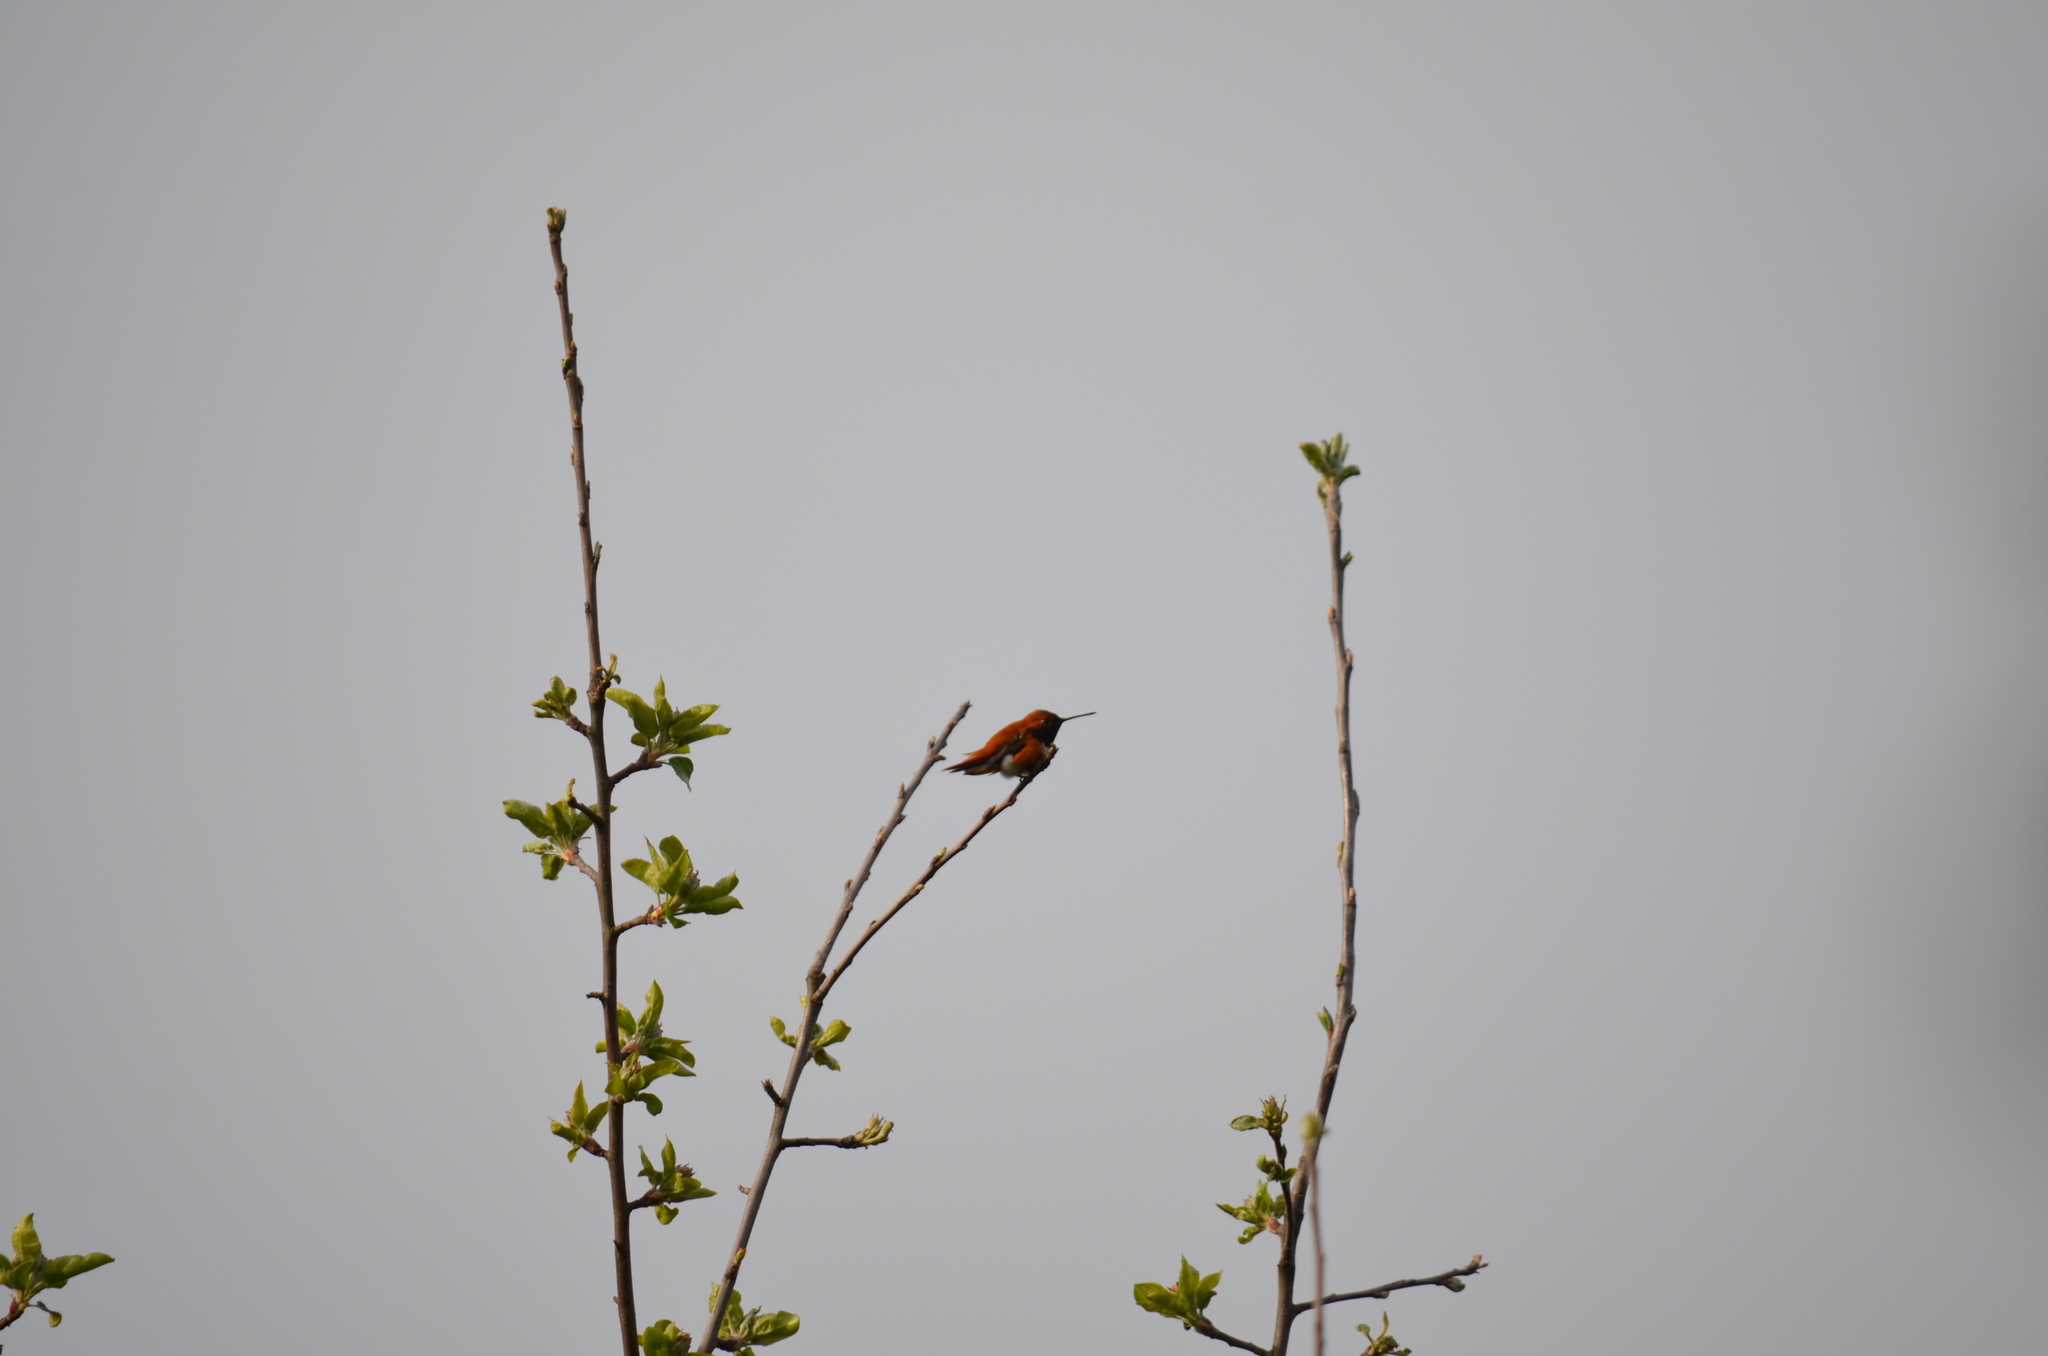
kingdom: Animalia
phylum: Chordata
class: Aves
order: Apodiformes
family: Trochilidae
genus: Selasphorus
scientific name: Selasphorus rufus
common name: Rufous hummingbird
